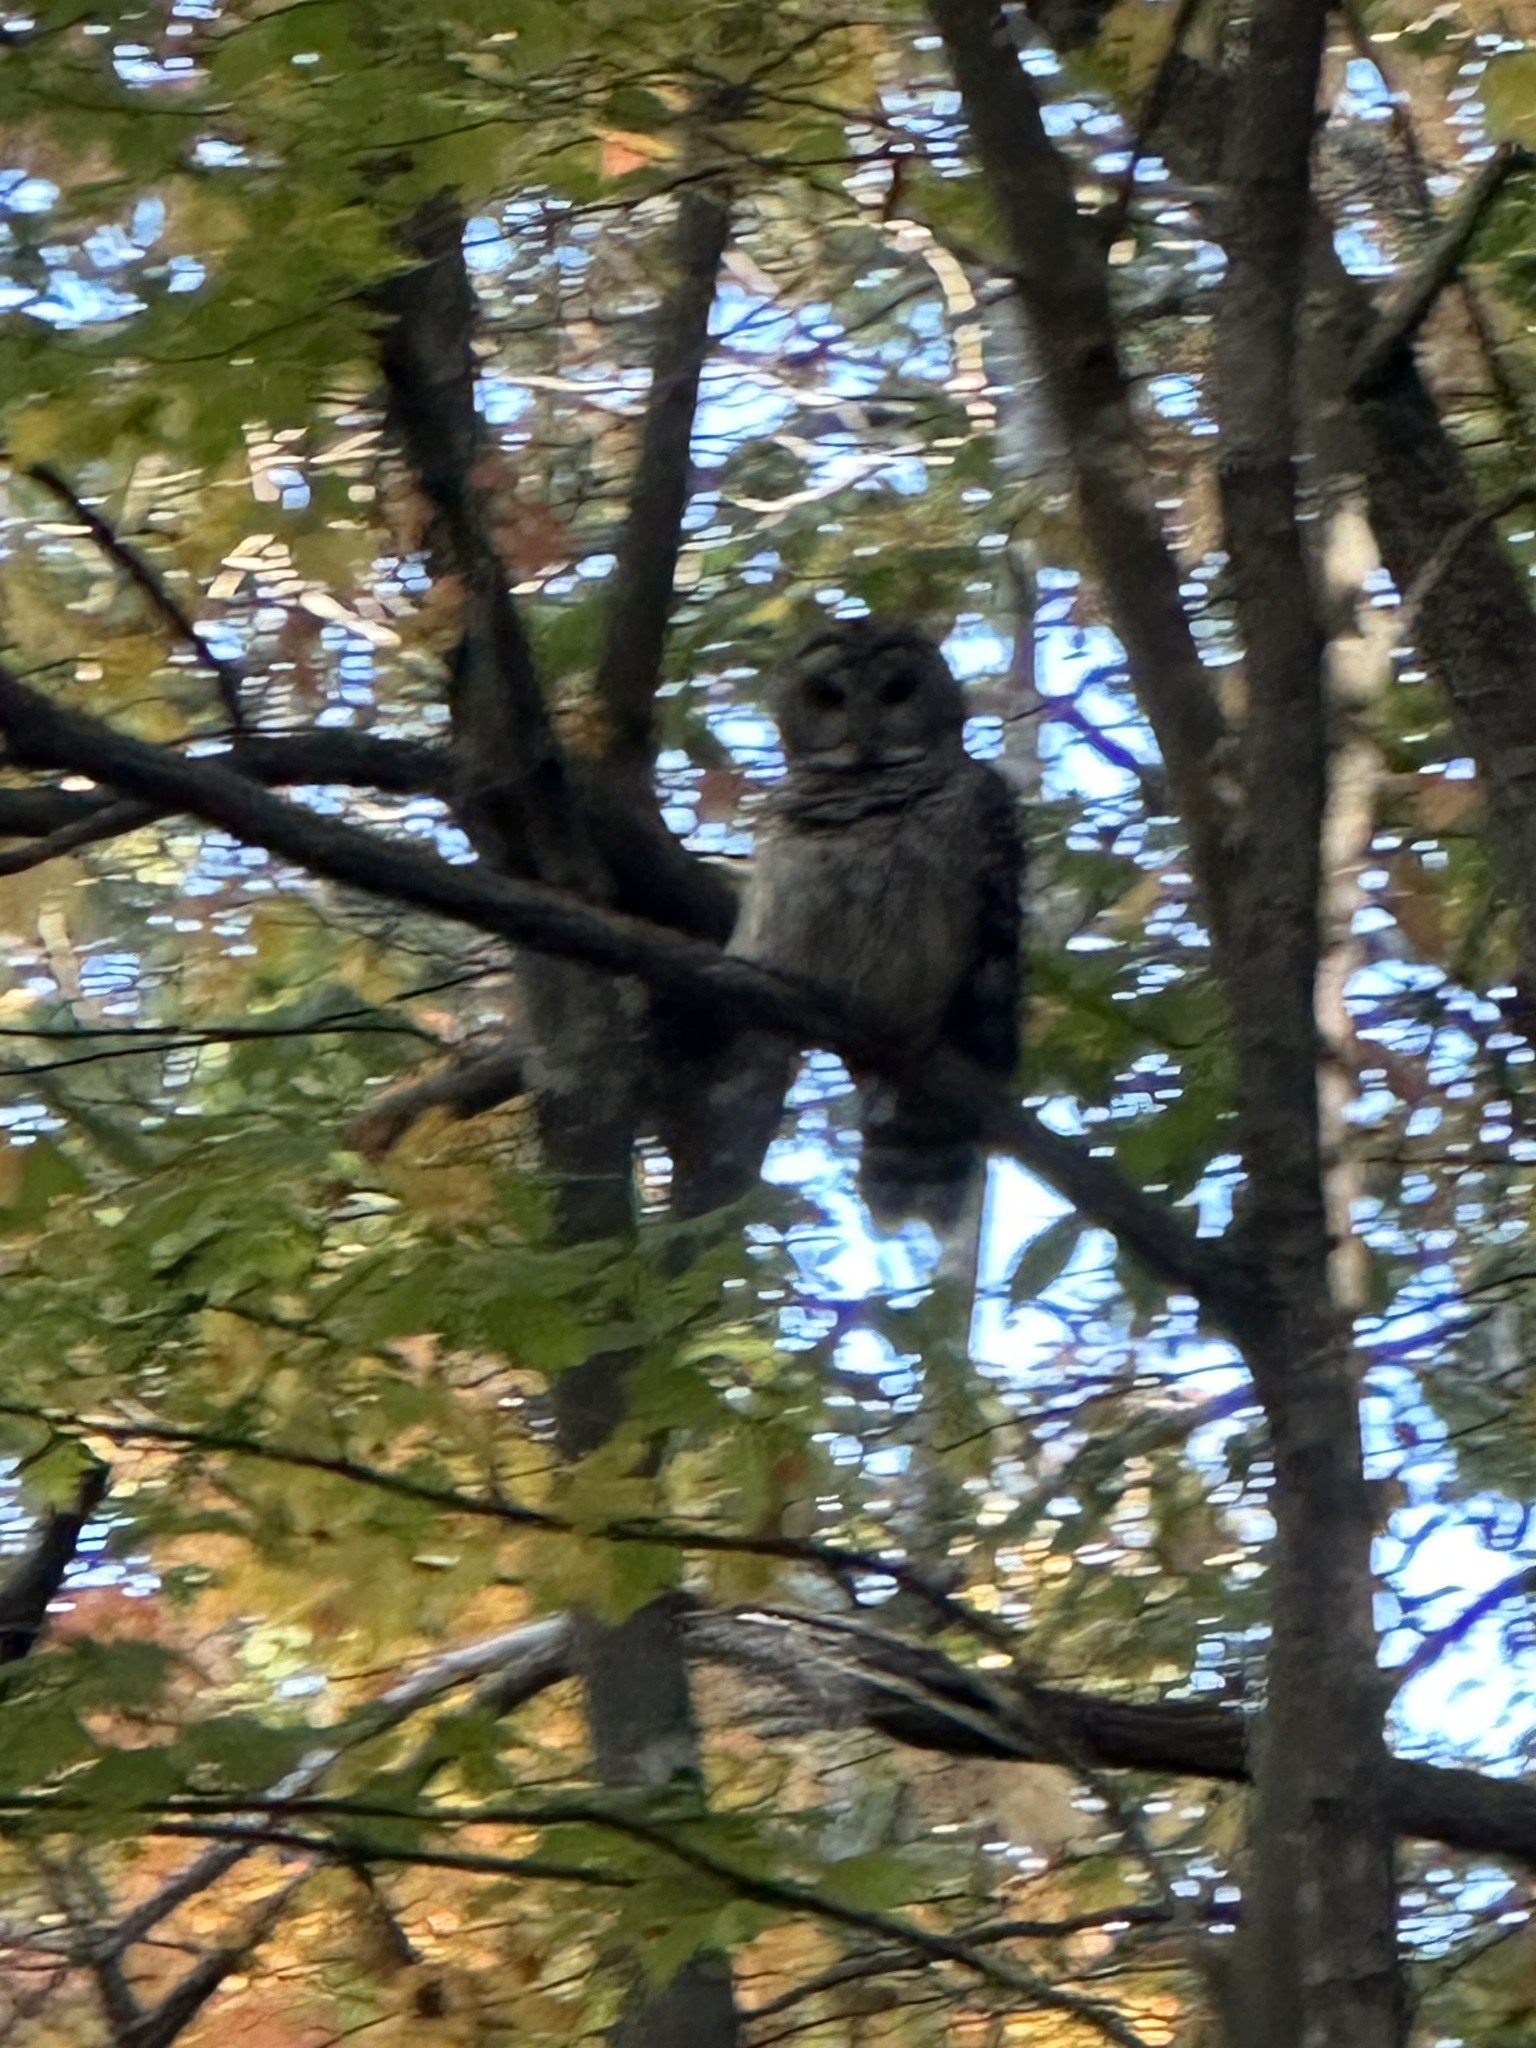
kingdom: Animalia
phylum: Chordata
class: Aves
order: Strigiformes
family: Strigidae
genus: Strix
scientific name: Strix varia
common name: Barred owl
